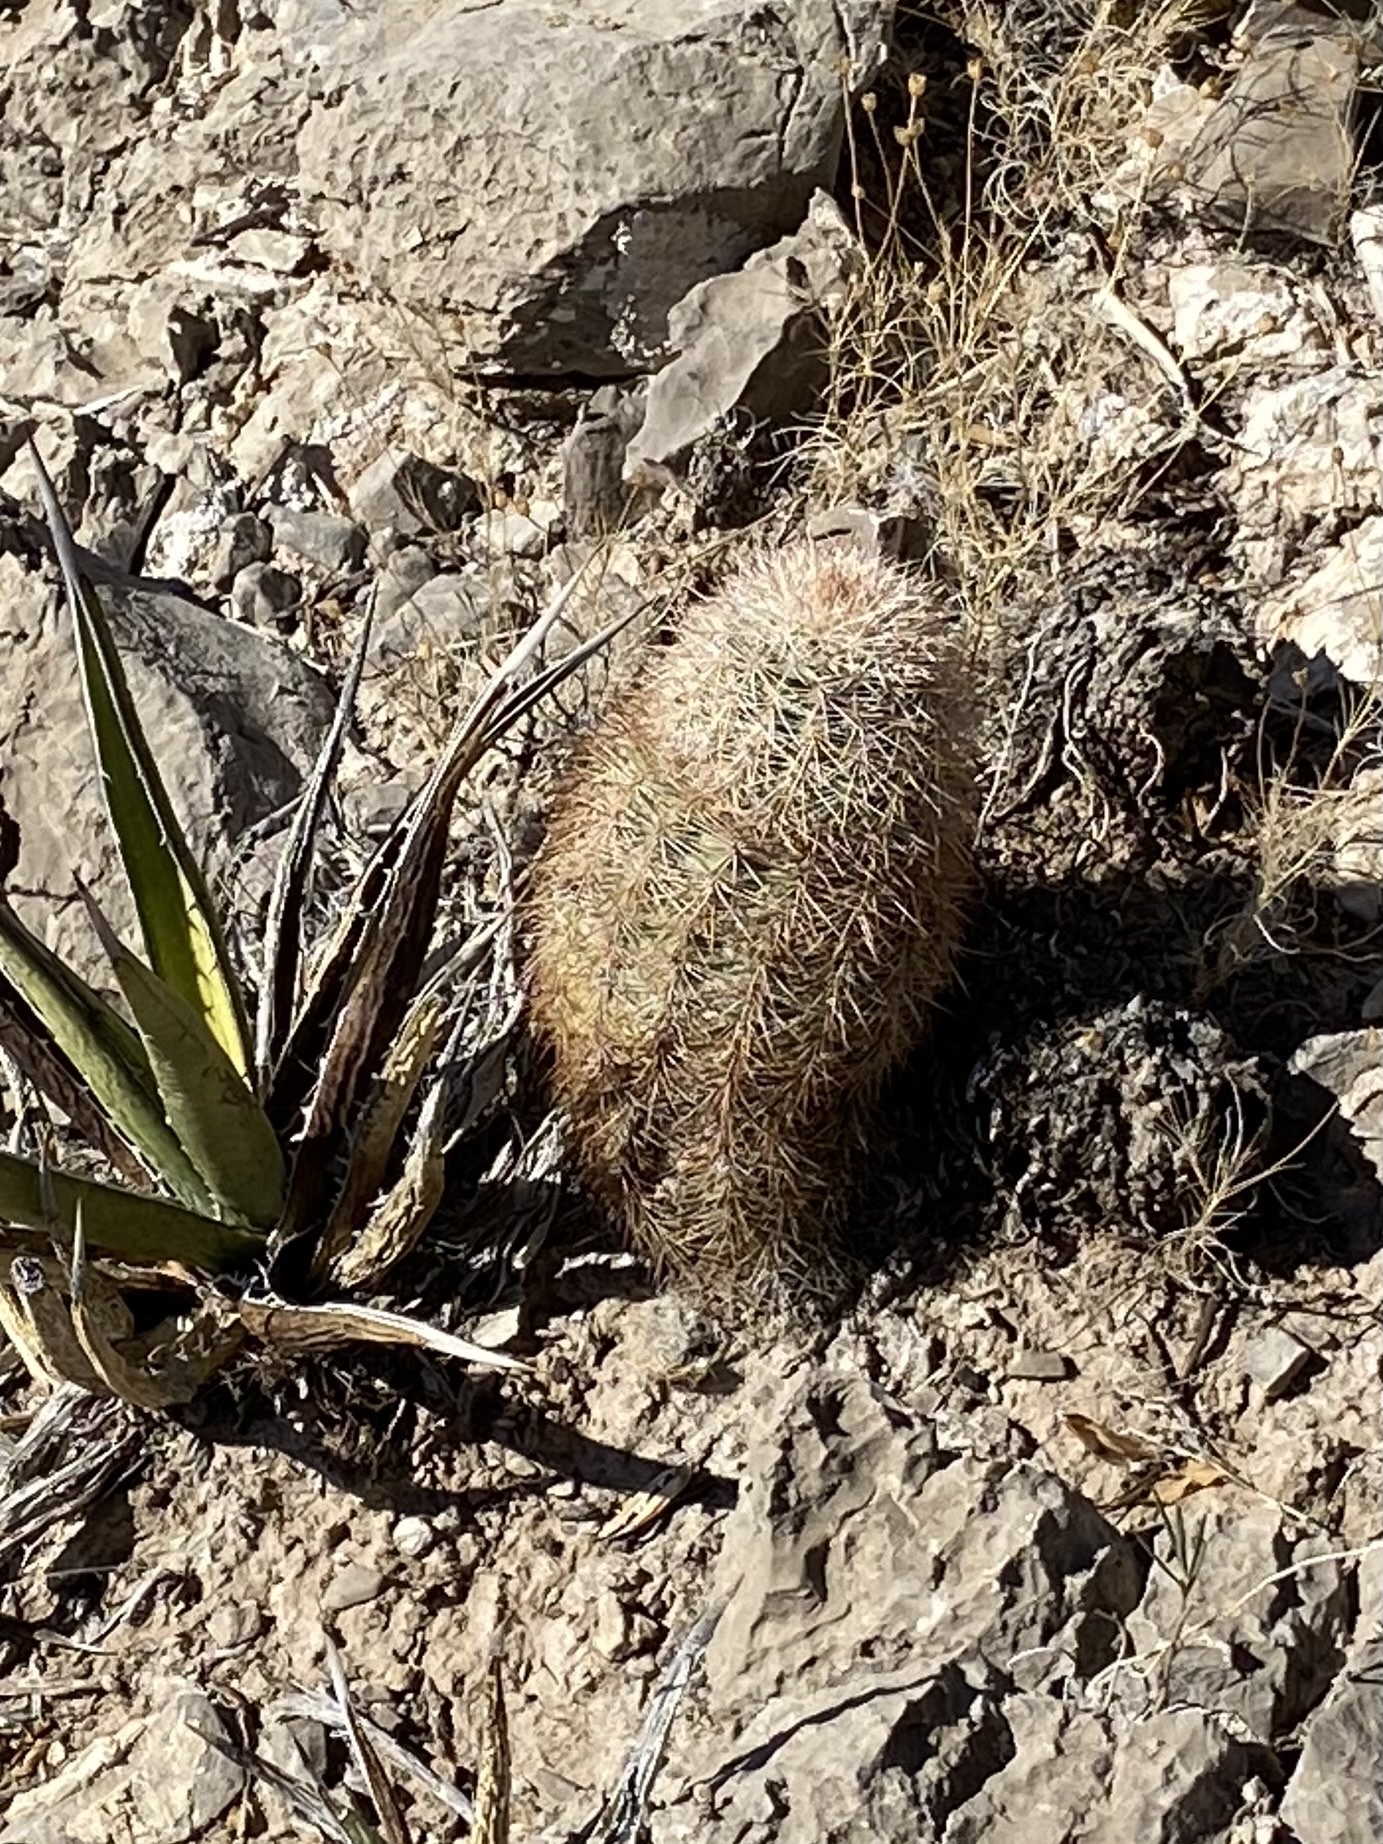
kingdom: Plantae
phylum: Tracheophyta
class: Magnoliopsida
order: Caryophyllales
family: Cactaceae
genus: Echinocereus
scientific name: Echinocereus dasyacanthus
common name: Spiny hedgehog cactus
